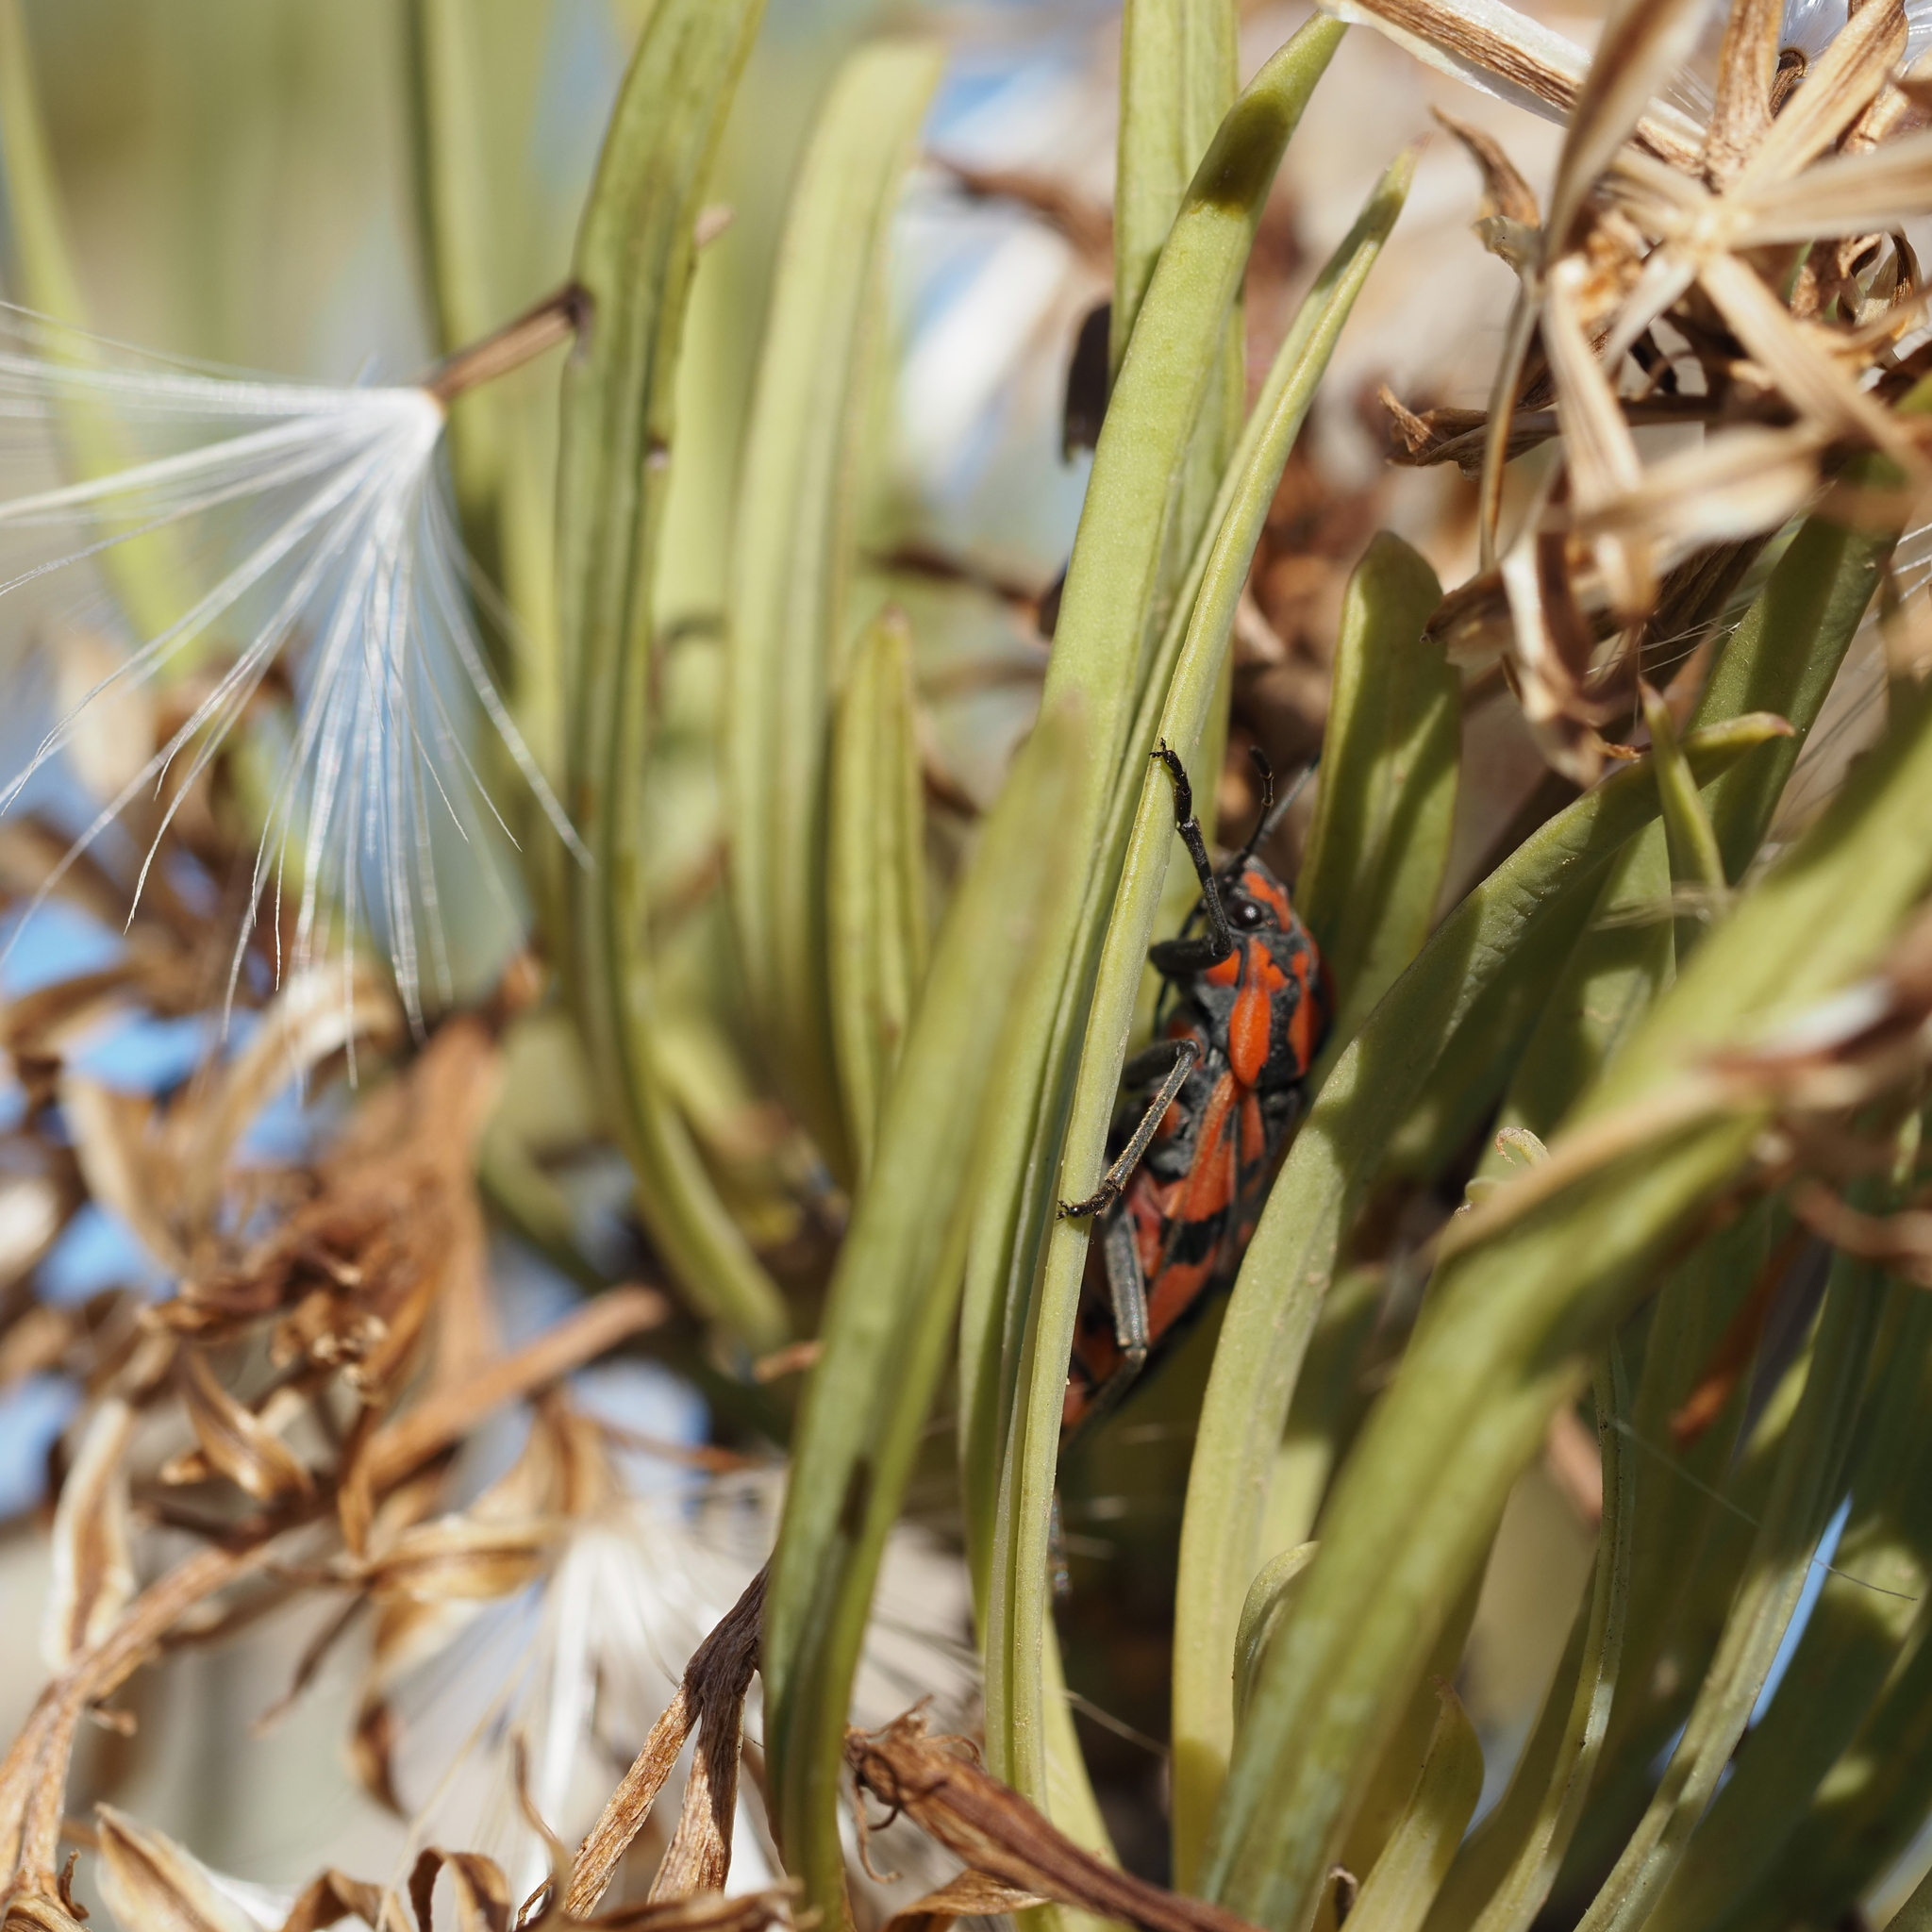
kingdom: Animalia
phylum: Arthropoda
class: Insecta
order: Hemiptera
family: Lygaeidae
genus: Spilostethus
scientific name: Spilostethus pandurus
